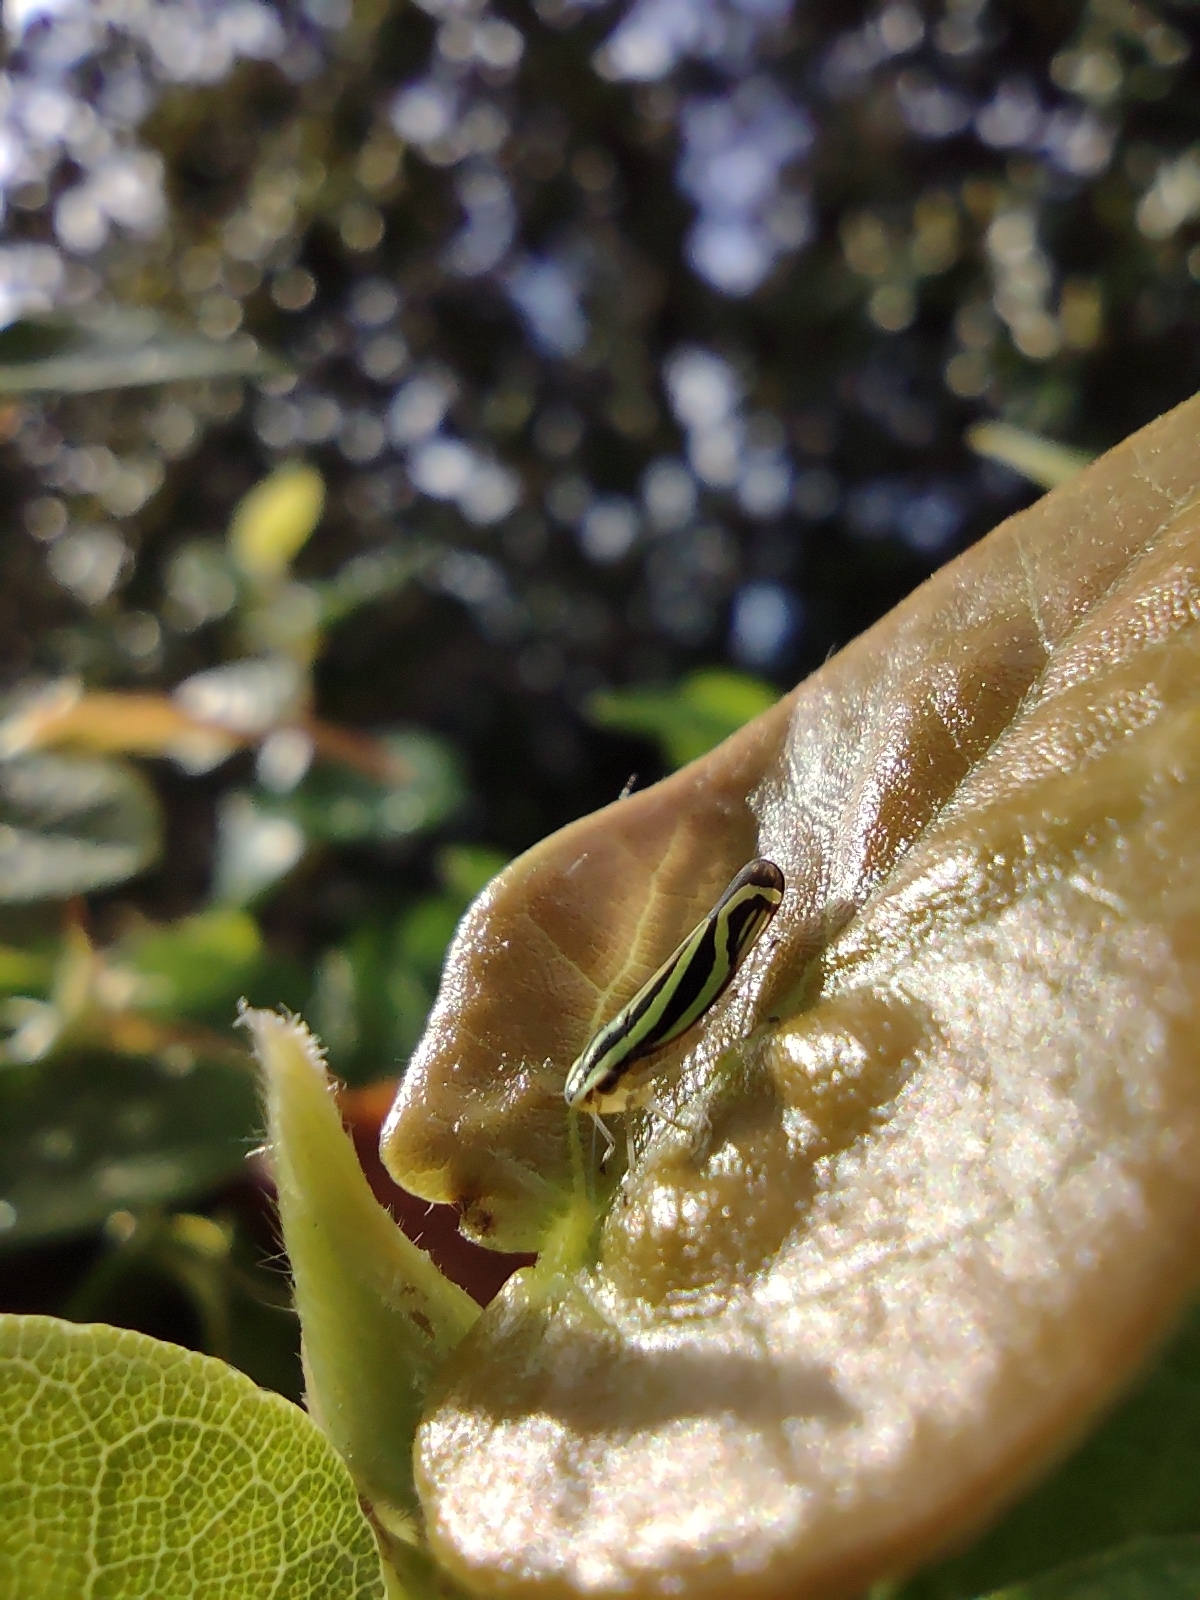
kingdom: Animalia
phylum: Arthropoda
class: Insecta
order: Hemiptera
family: Cicadellidae
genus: Sibovia
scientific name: Sibovia sagata
